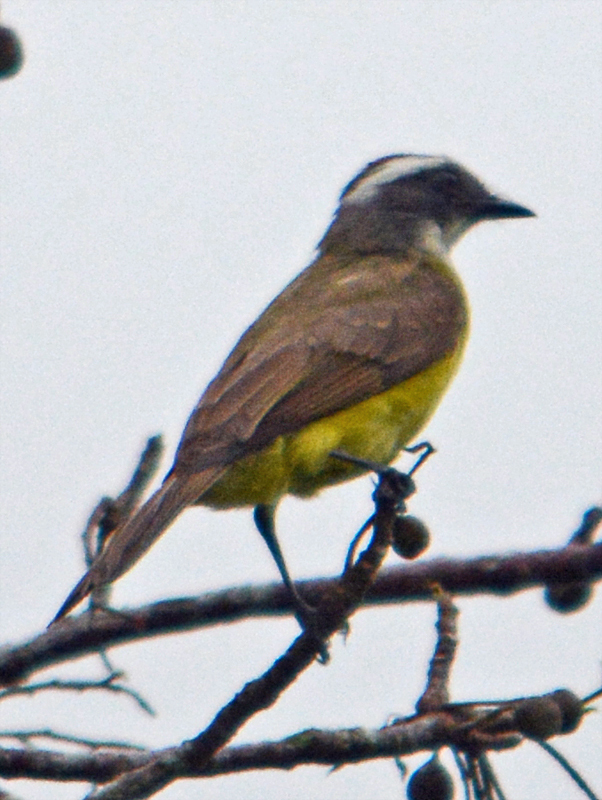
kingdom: Animalia
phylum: Chordata
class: Aves
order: Passeriformes
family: Tyrannidae
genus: Myiozetetes
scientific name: Myiozetetes similis
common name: Social flycatcher
